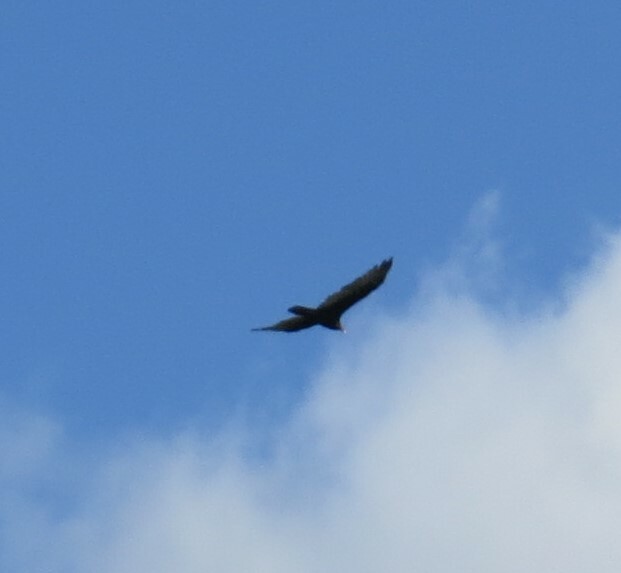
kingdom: Animalia
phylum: Chordata
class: Aves
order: Accipitriformes
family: Cathartidae
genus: Cathartes
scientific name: Cathartes aura
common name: Turkey vulture
